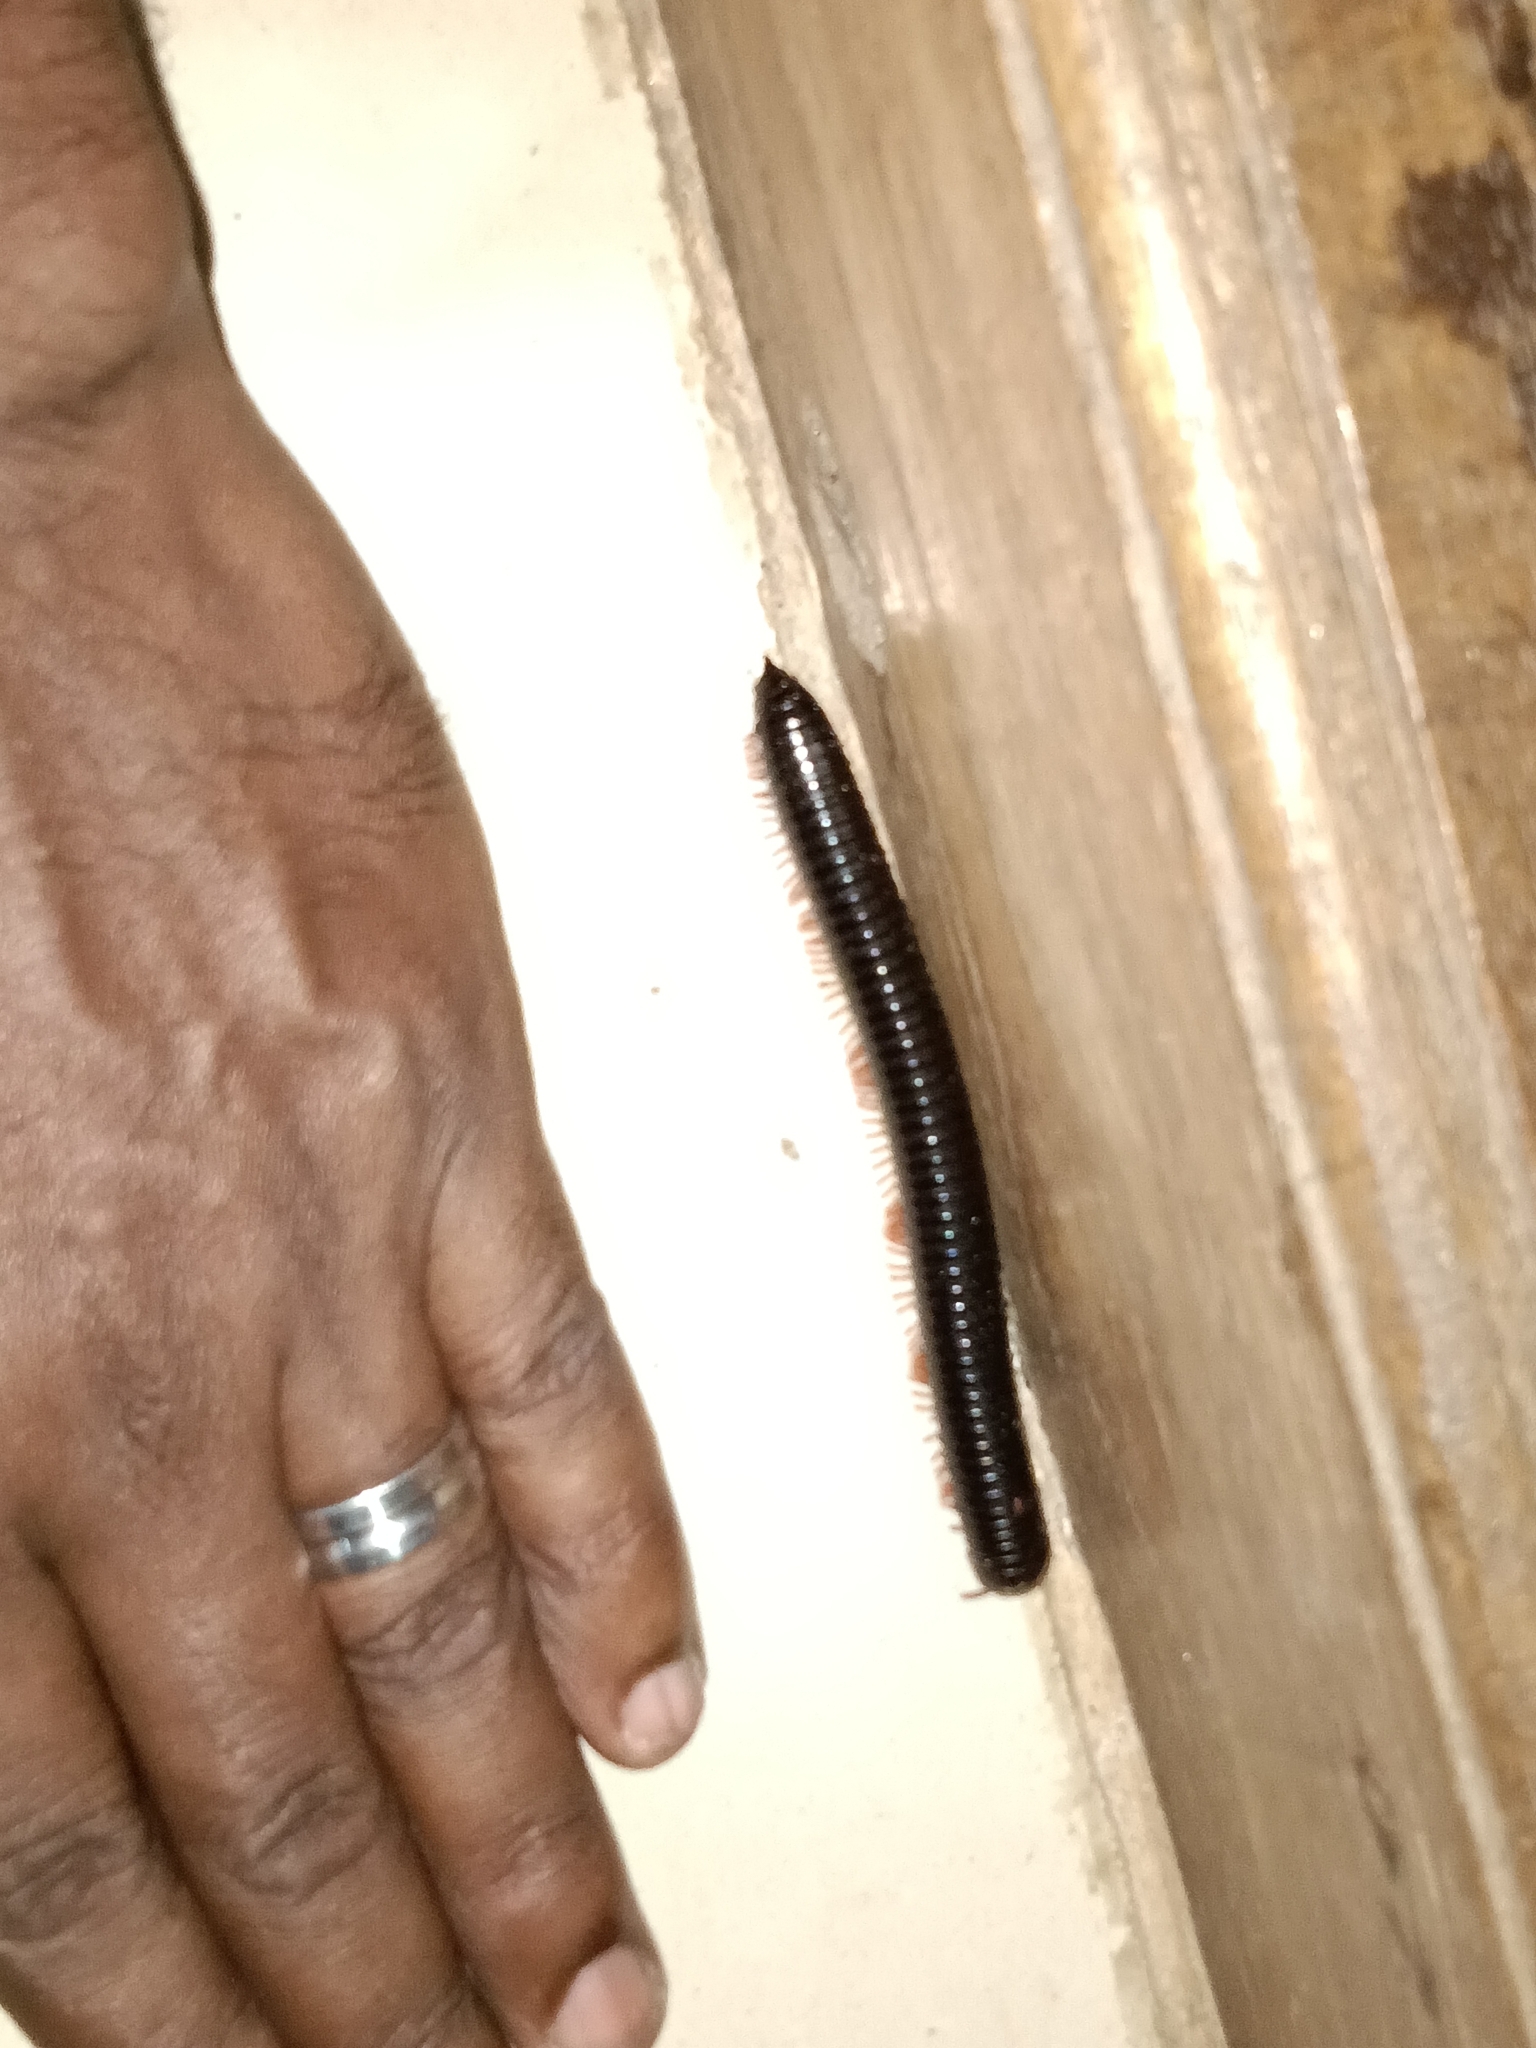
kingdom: Animalia
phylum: Arthropoda
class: Diplopoda
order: Spirostreptida
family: Harpagophoridae
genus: Phyllogonostreptus
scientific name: Phyllogonostreptus nigrolabiatus
